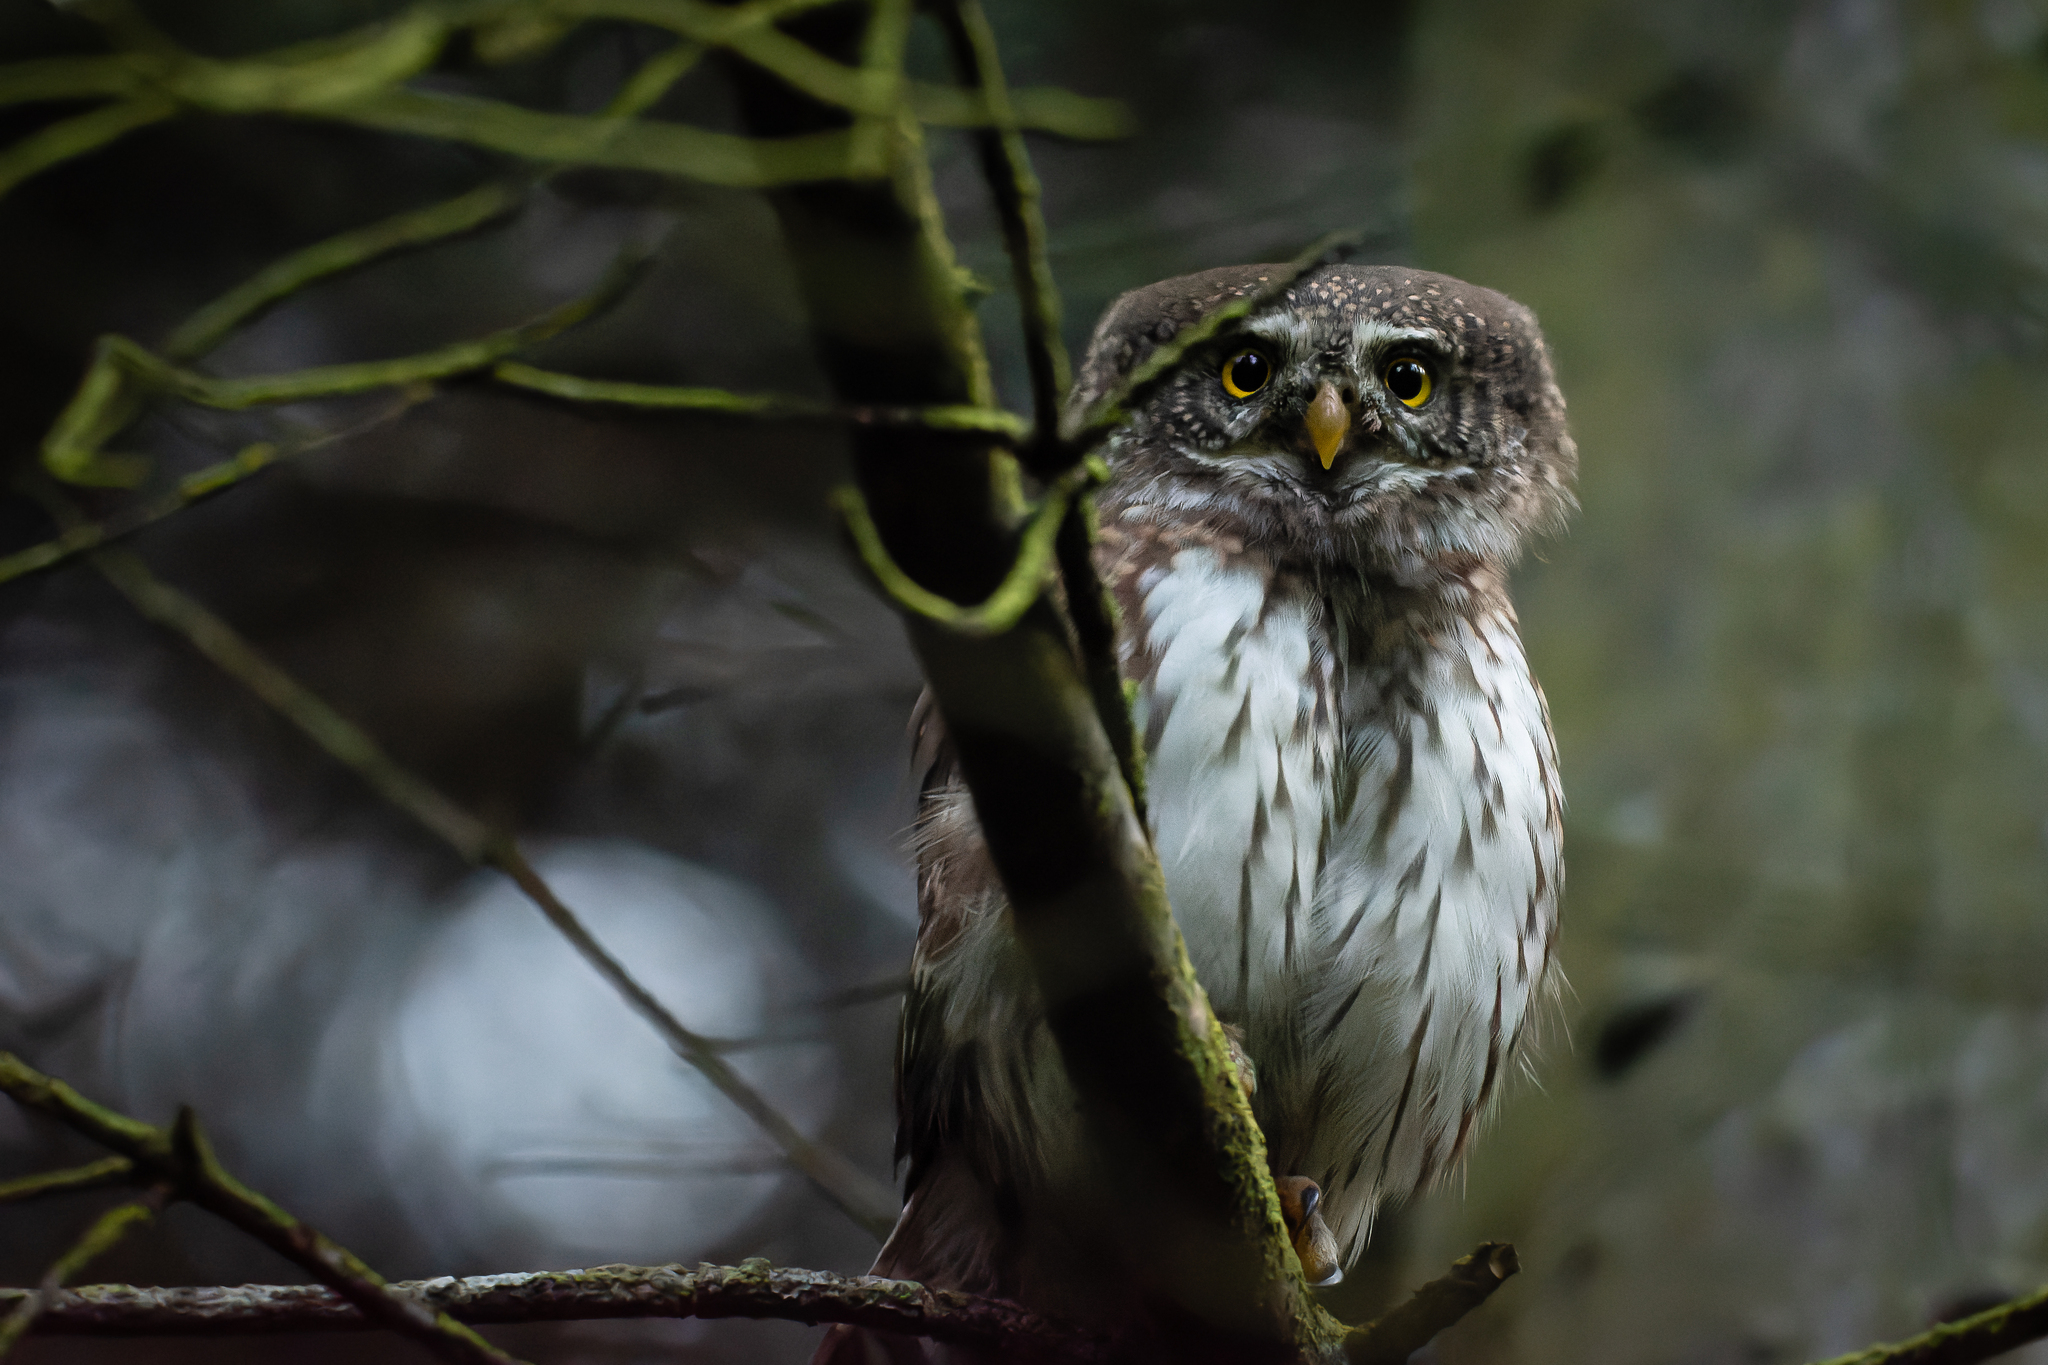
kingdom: Animalia
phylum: Chordata
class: Aves
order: Strigiformes
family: Strigidae
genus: Glaucidium
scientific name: Glaucidium passerinum
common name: Eurasian pygmy owl
